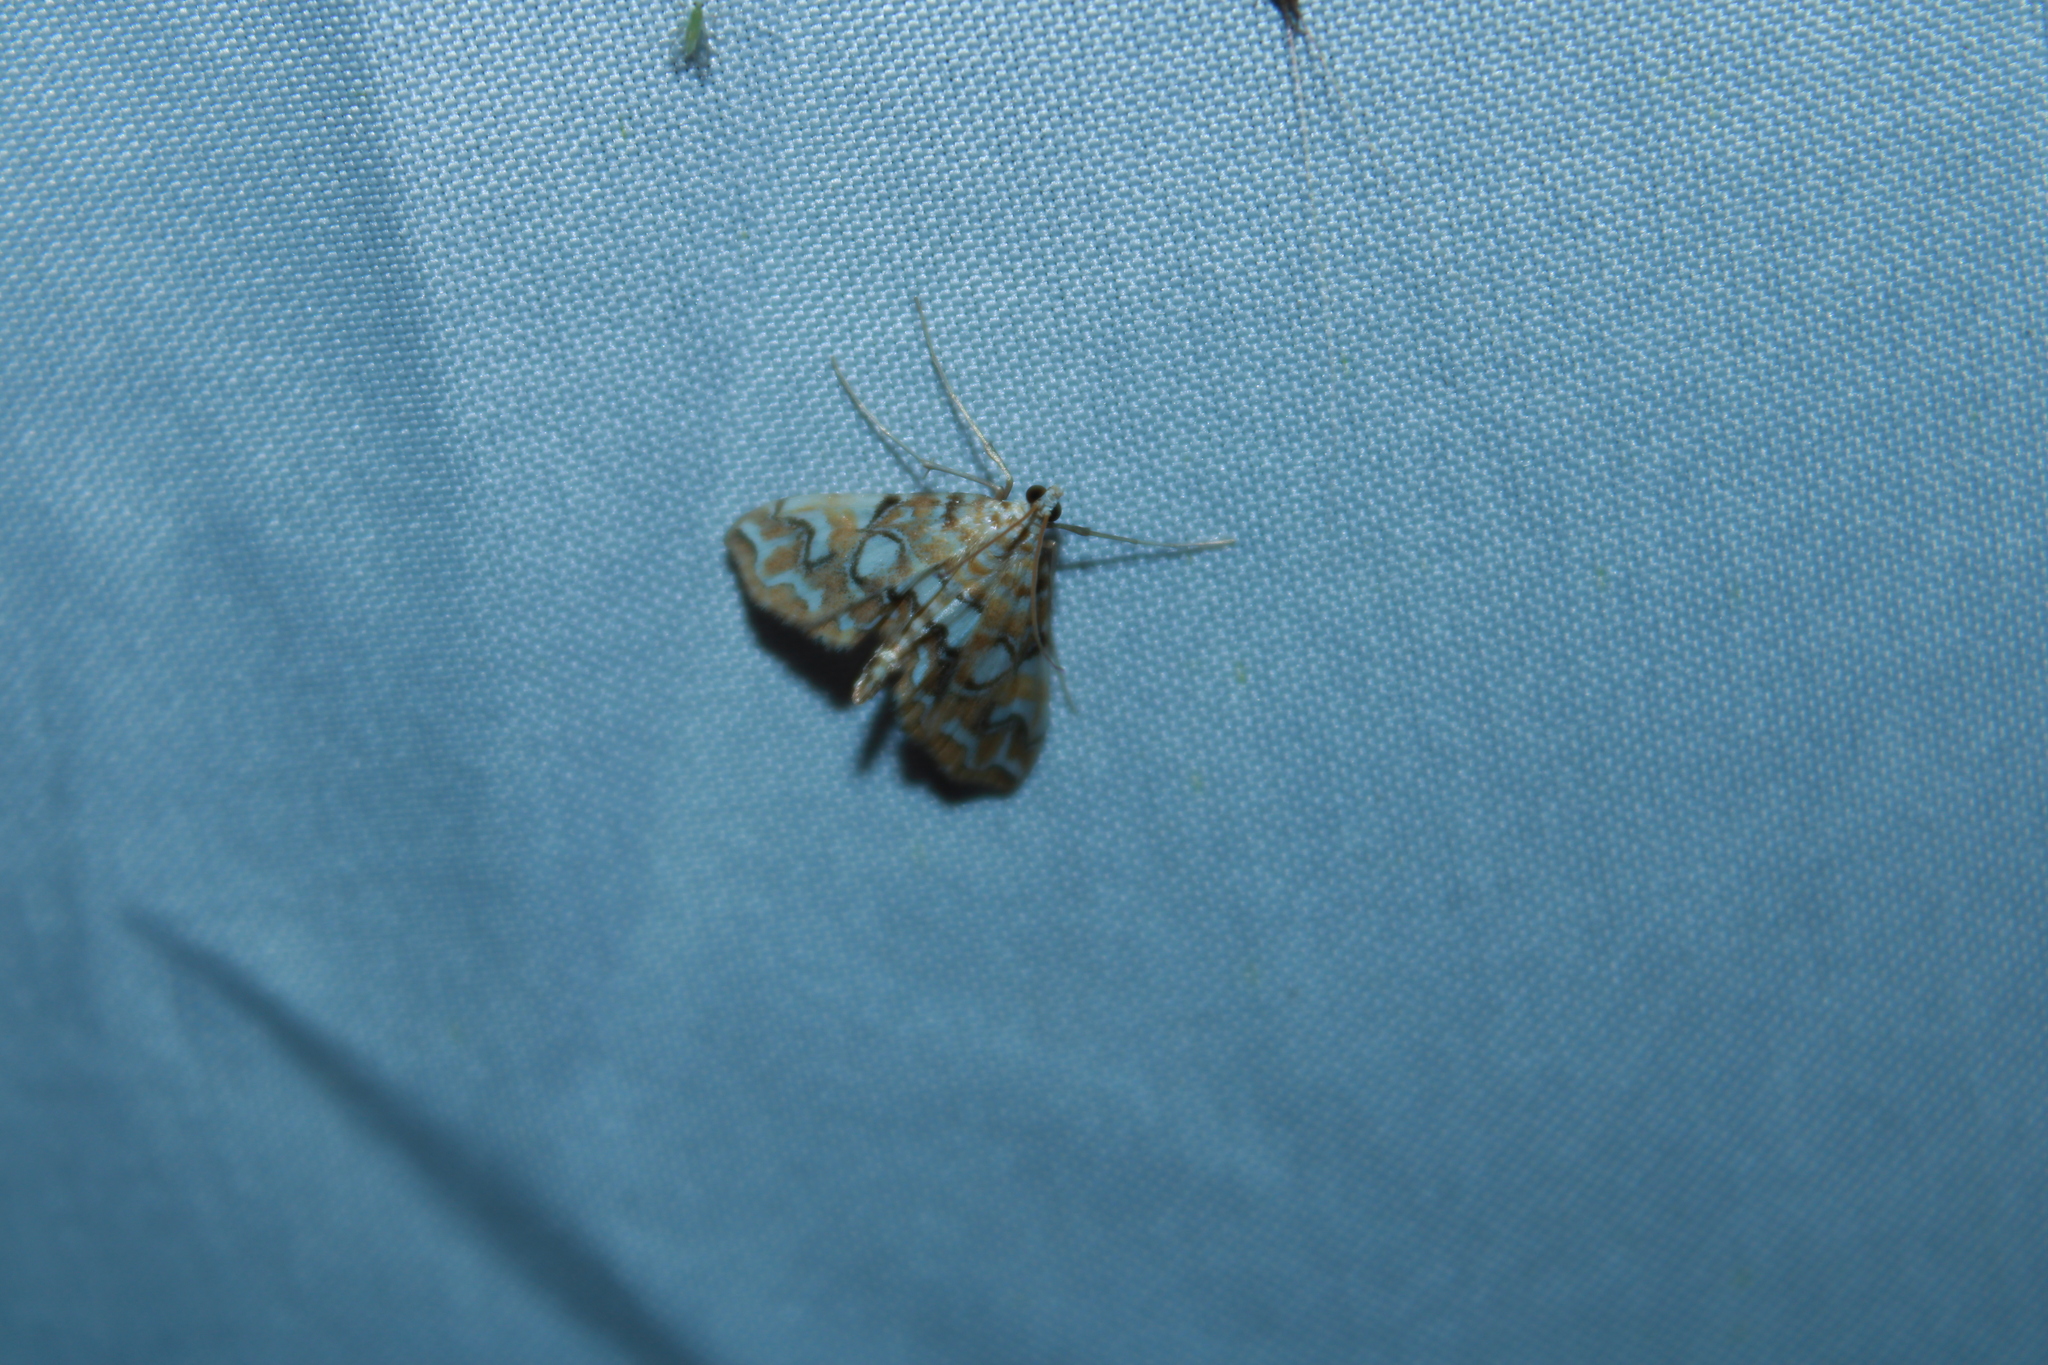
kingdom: Animalia
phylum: Arthropoda
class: Insecta
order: Lepidoptera
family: Crambidae
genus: Elophila
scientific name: Elophila icciusalis
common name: Pondside pyralid moth
